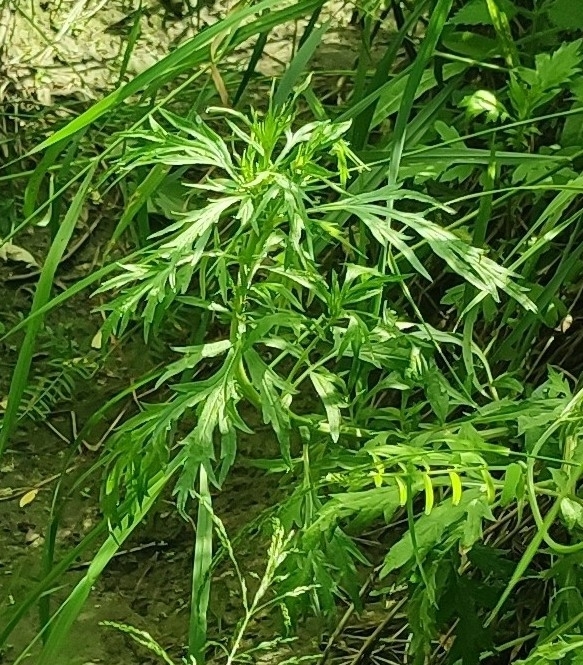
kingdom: Plantae
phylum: Tracheophyta
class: Magnoliopsida
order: Asterales
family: Asteraceae
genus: Artemisia
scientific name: Artemisia vulgaris
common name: Mugwort
